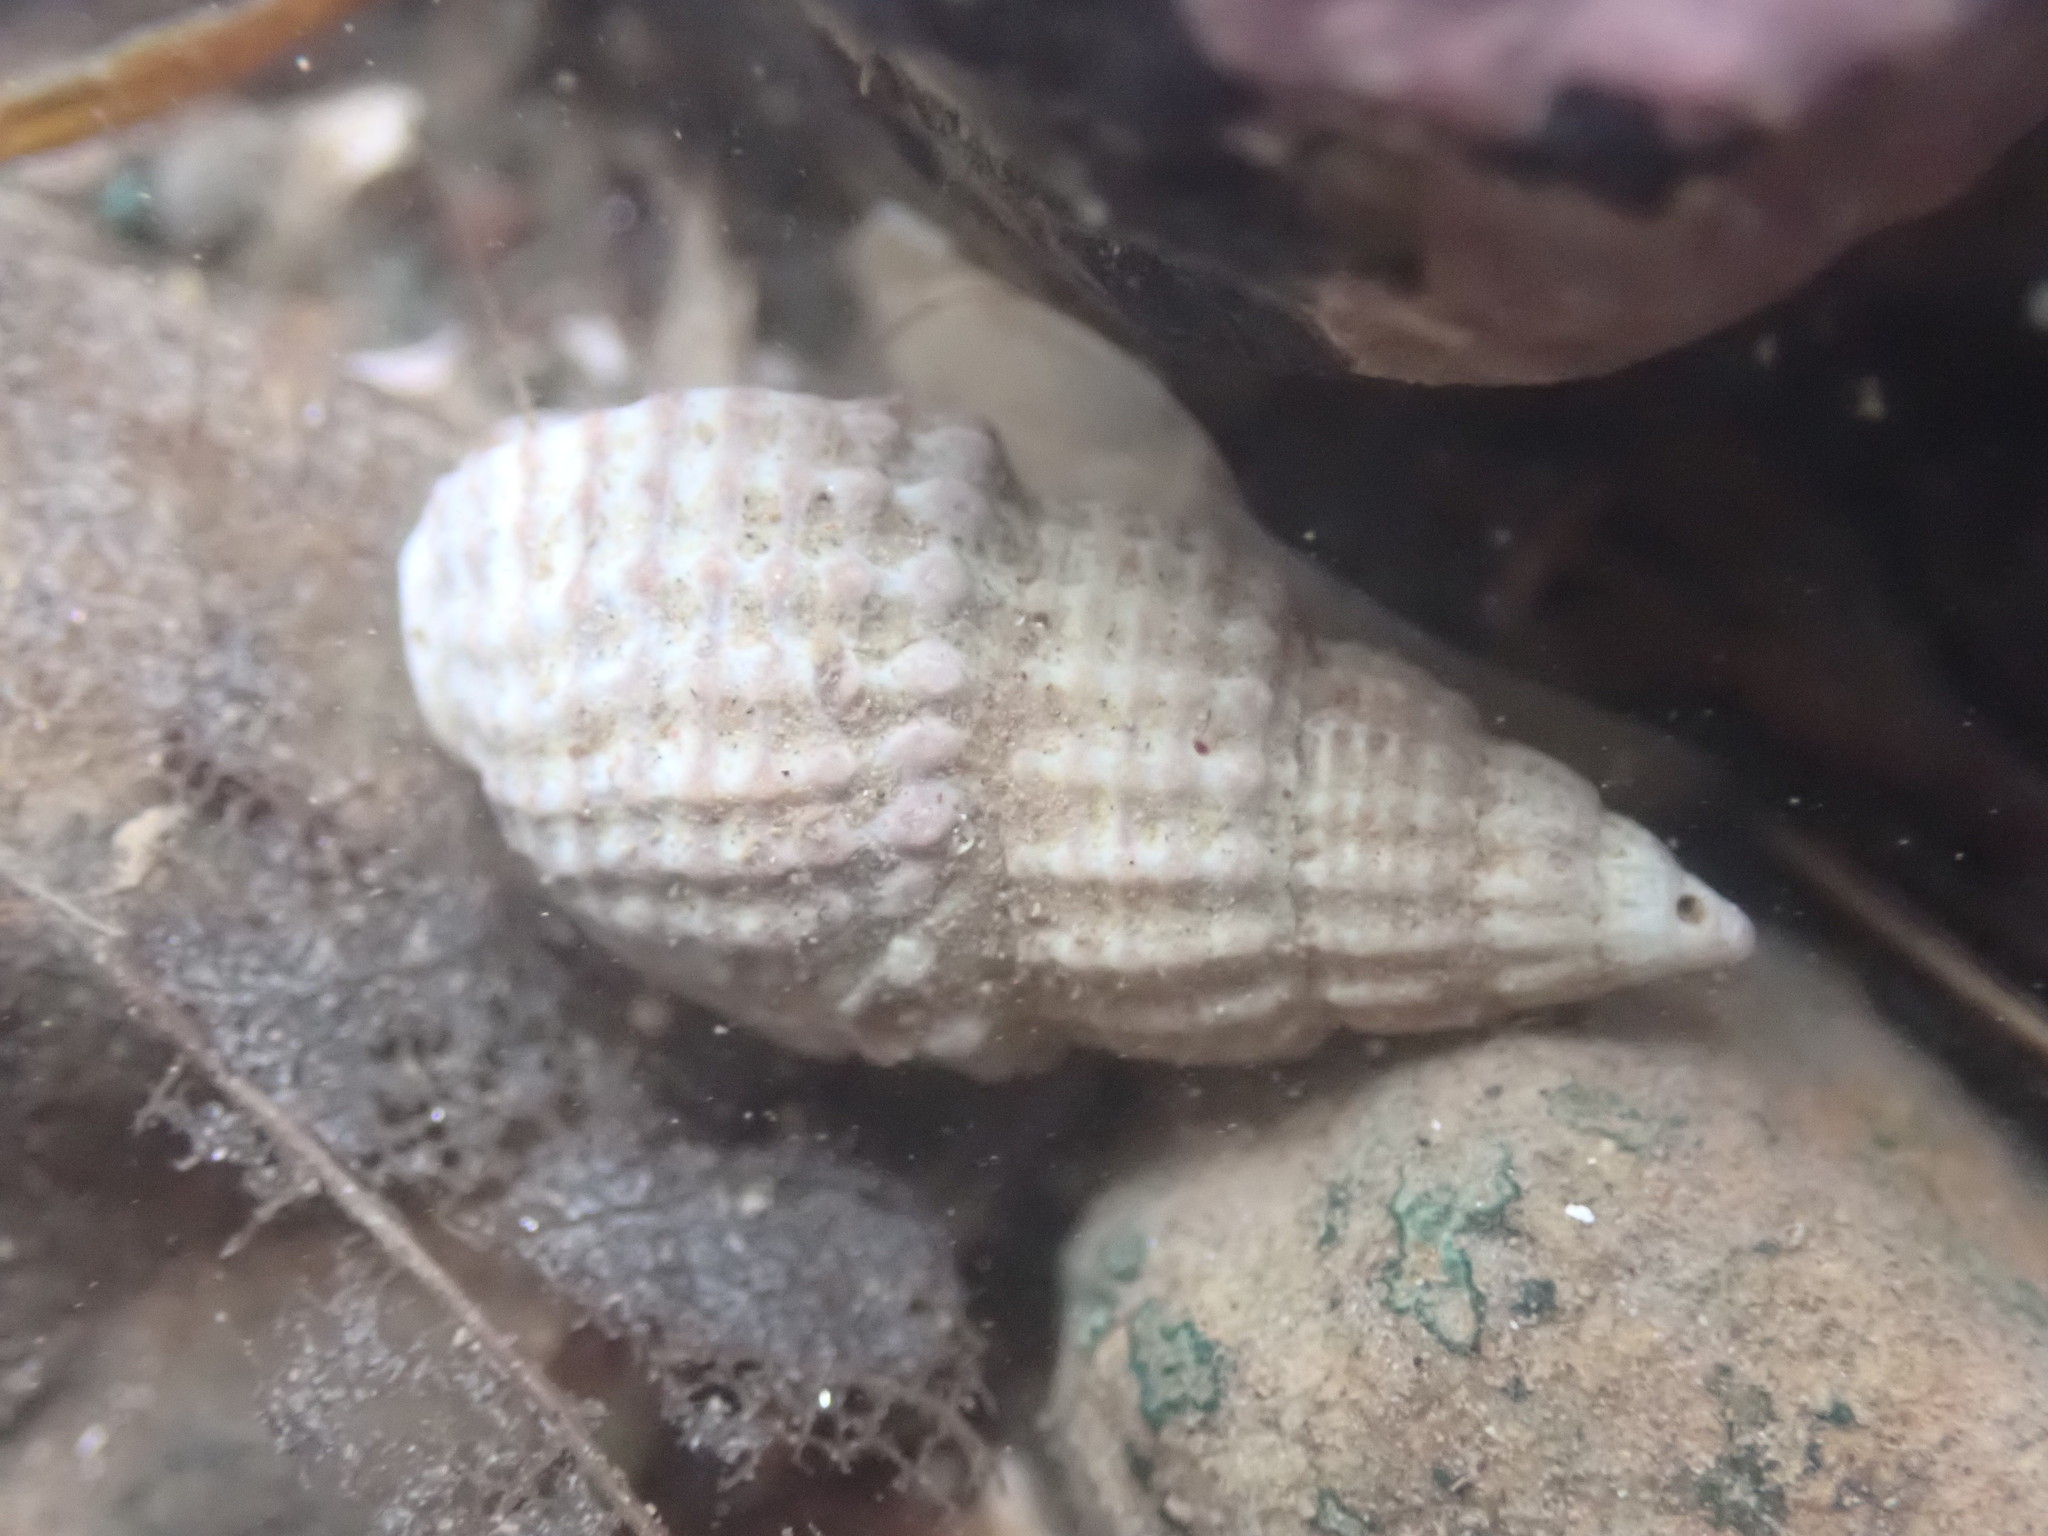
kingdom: Animalia
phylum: Mollusca
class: Gastropoda
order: Neogastropoda
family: Nassariidae
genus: Ilyanassa
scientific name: Ilyanassa trivittata
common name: Three-line mudsnail
